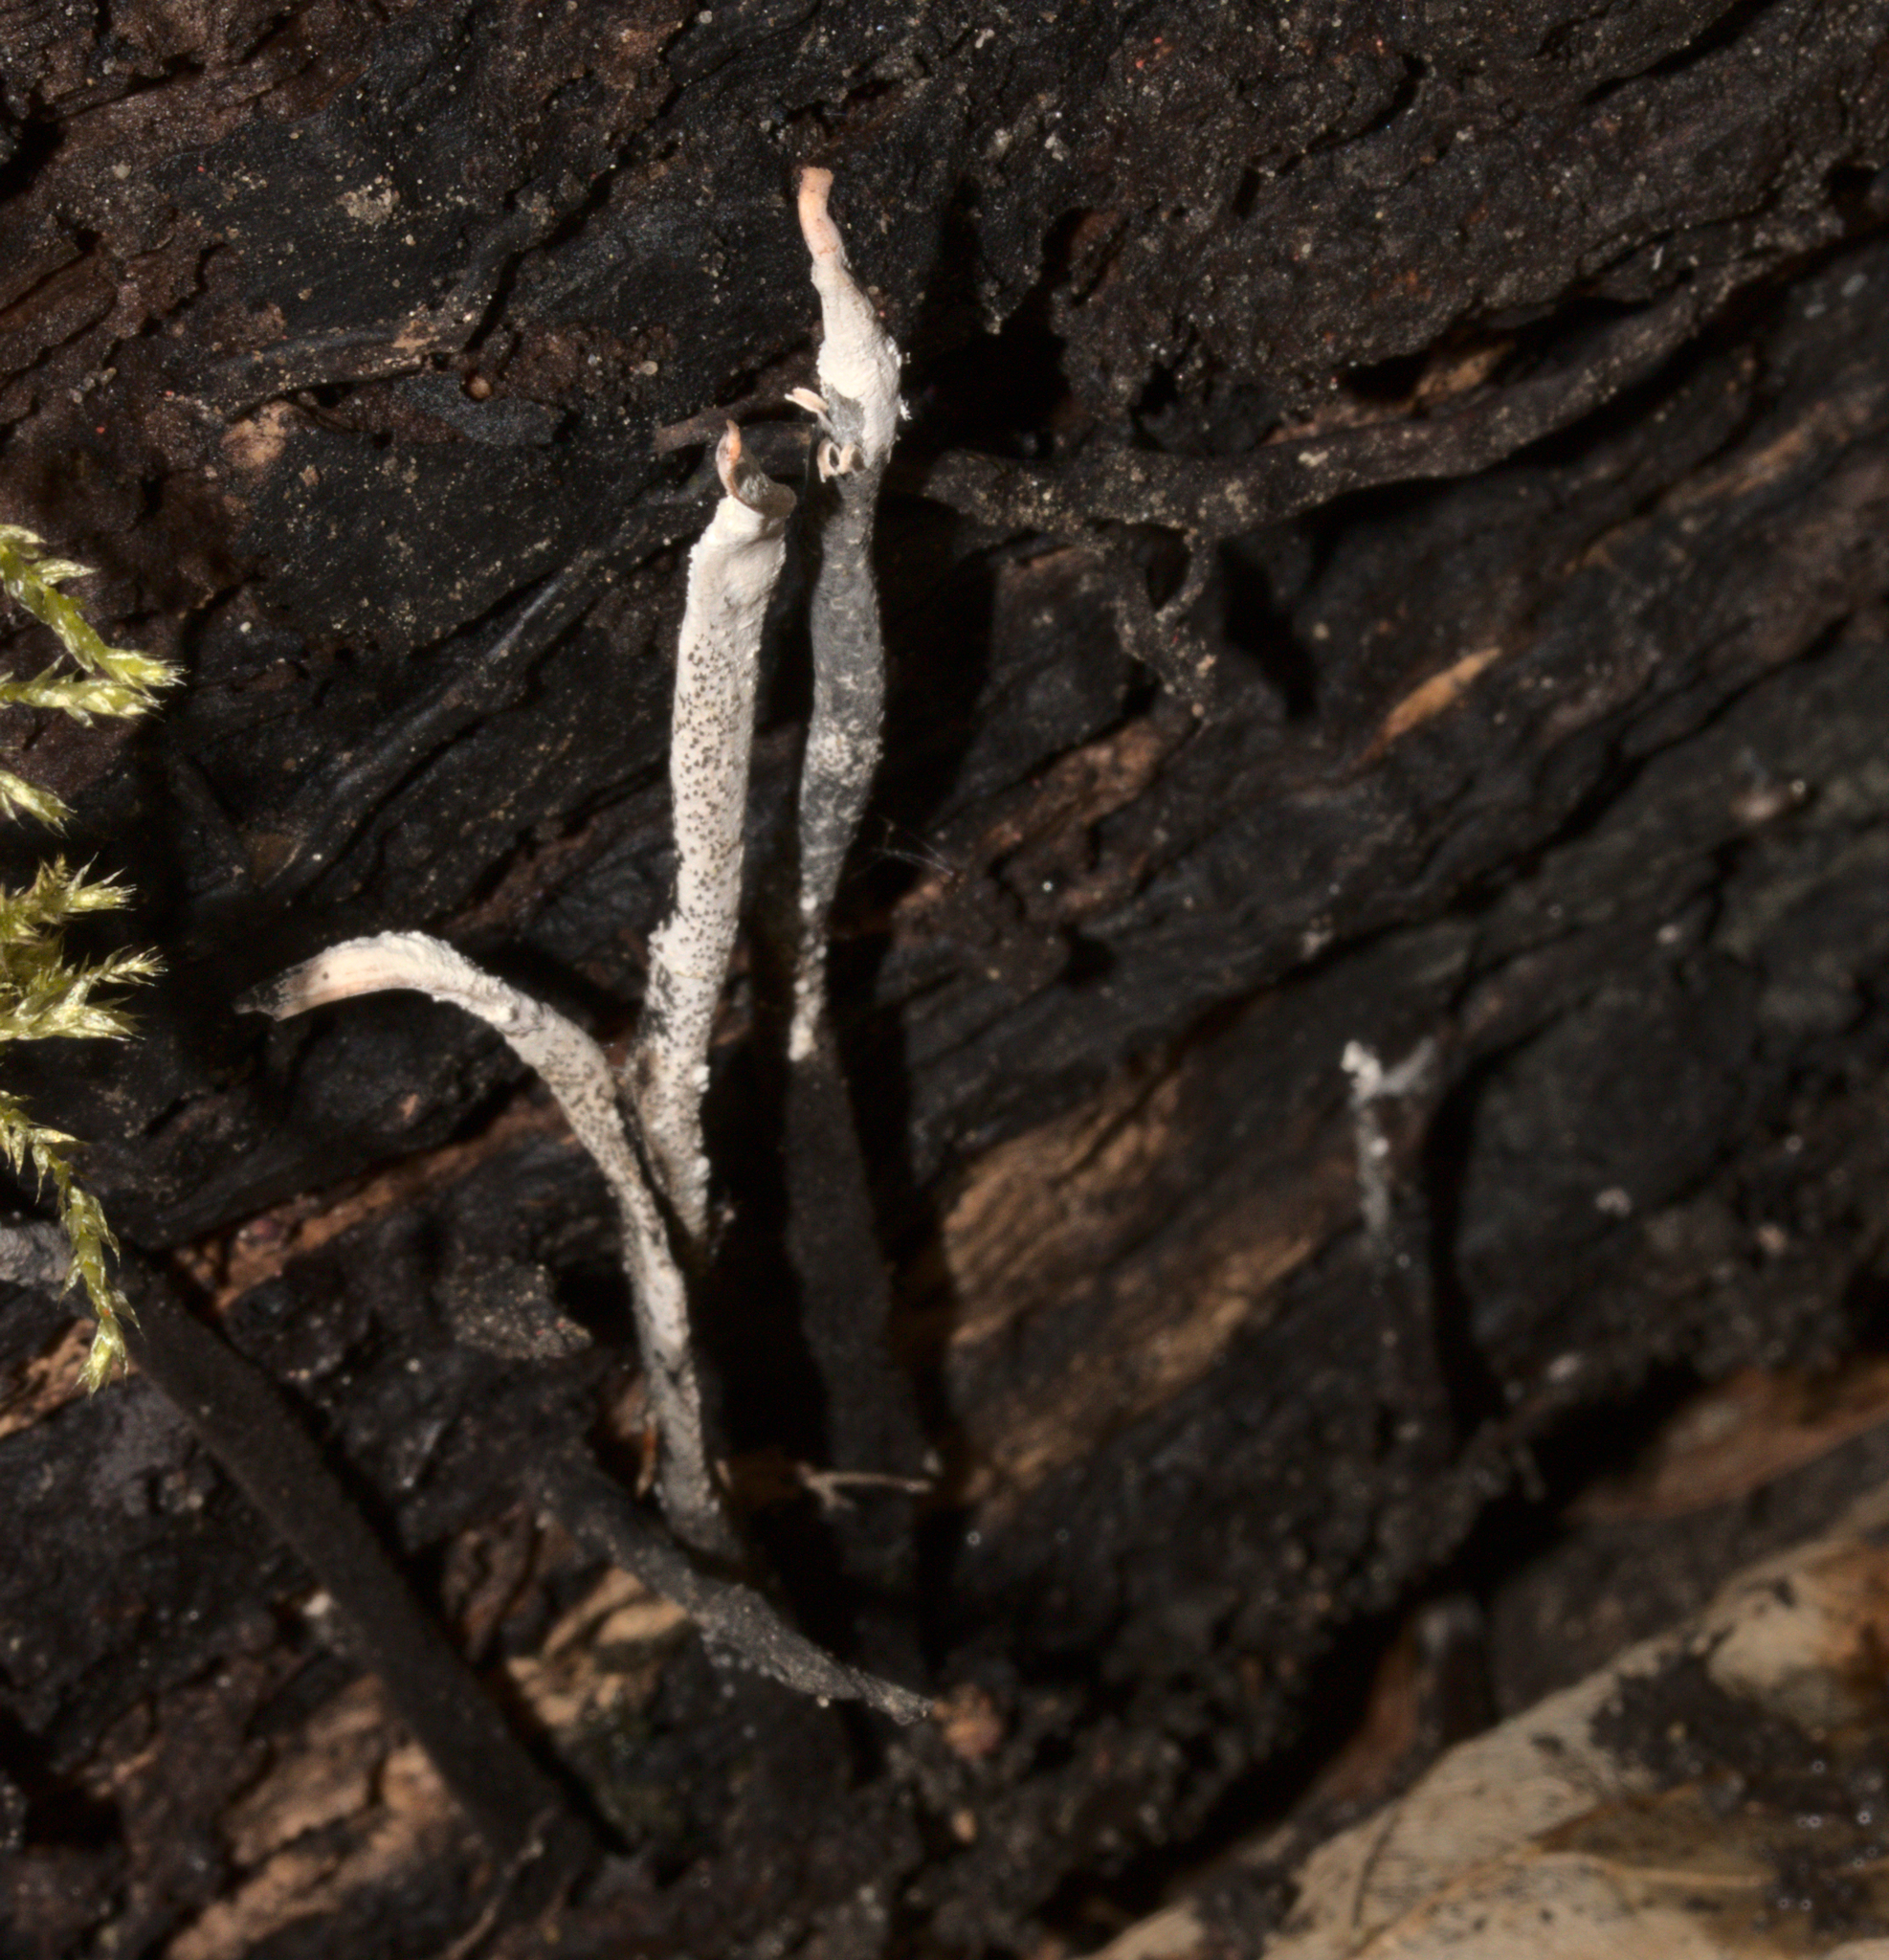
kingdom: Fungi
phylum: Ascomycota
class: Sordariomycetes
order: Xylariales
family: Xylariaceae
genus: Xylaria
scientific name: Xylaria hypoxylon
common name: Candle-snuff fungus
